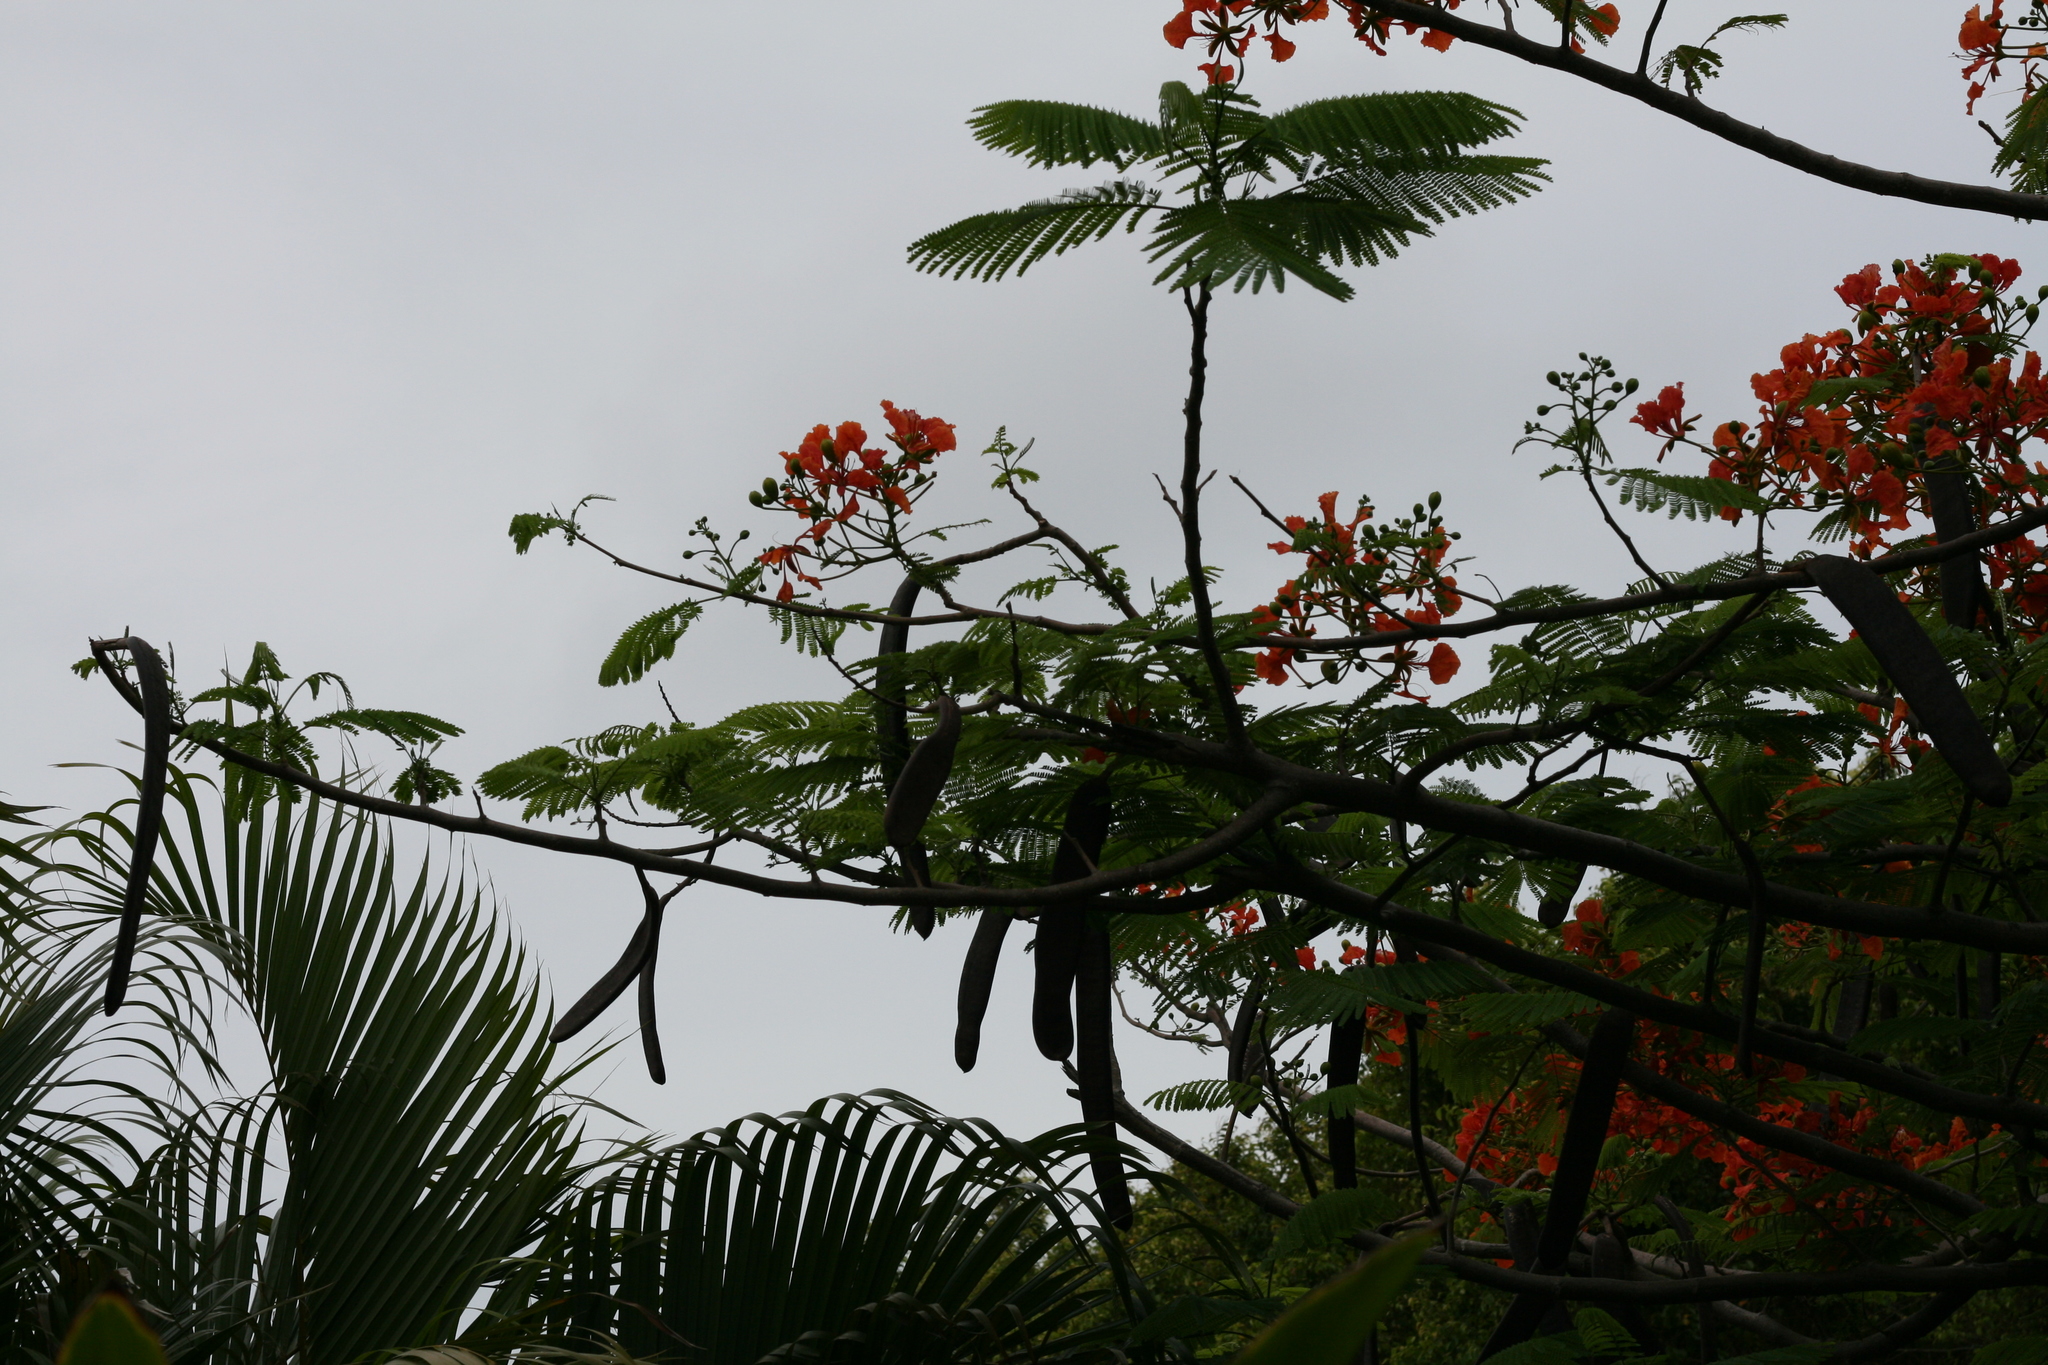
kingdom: Plantae
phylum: Tracheophyta
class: Magnoliopsida
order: Fabales
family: Fabaceae
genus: Delonix
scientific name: Delonix regia
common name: Royal poinciana
